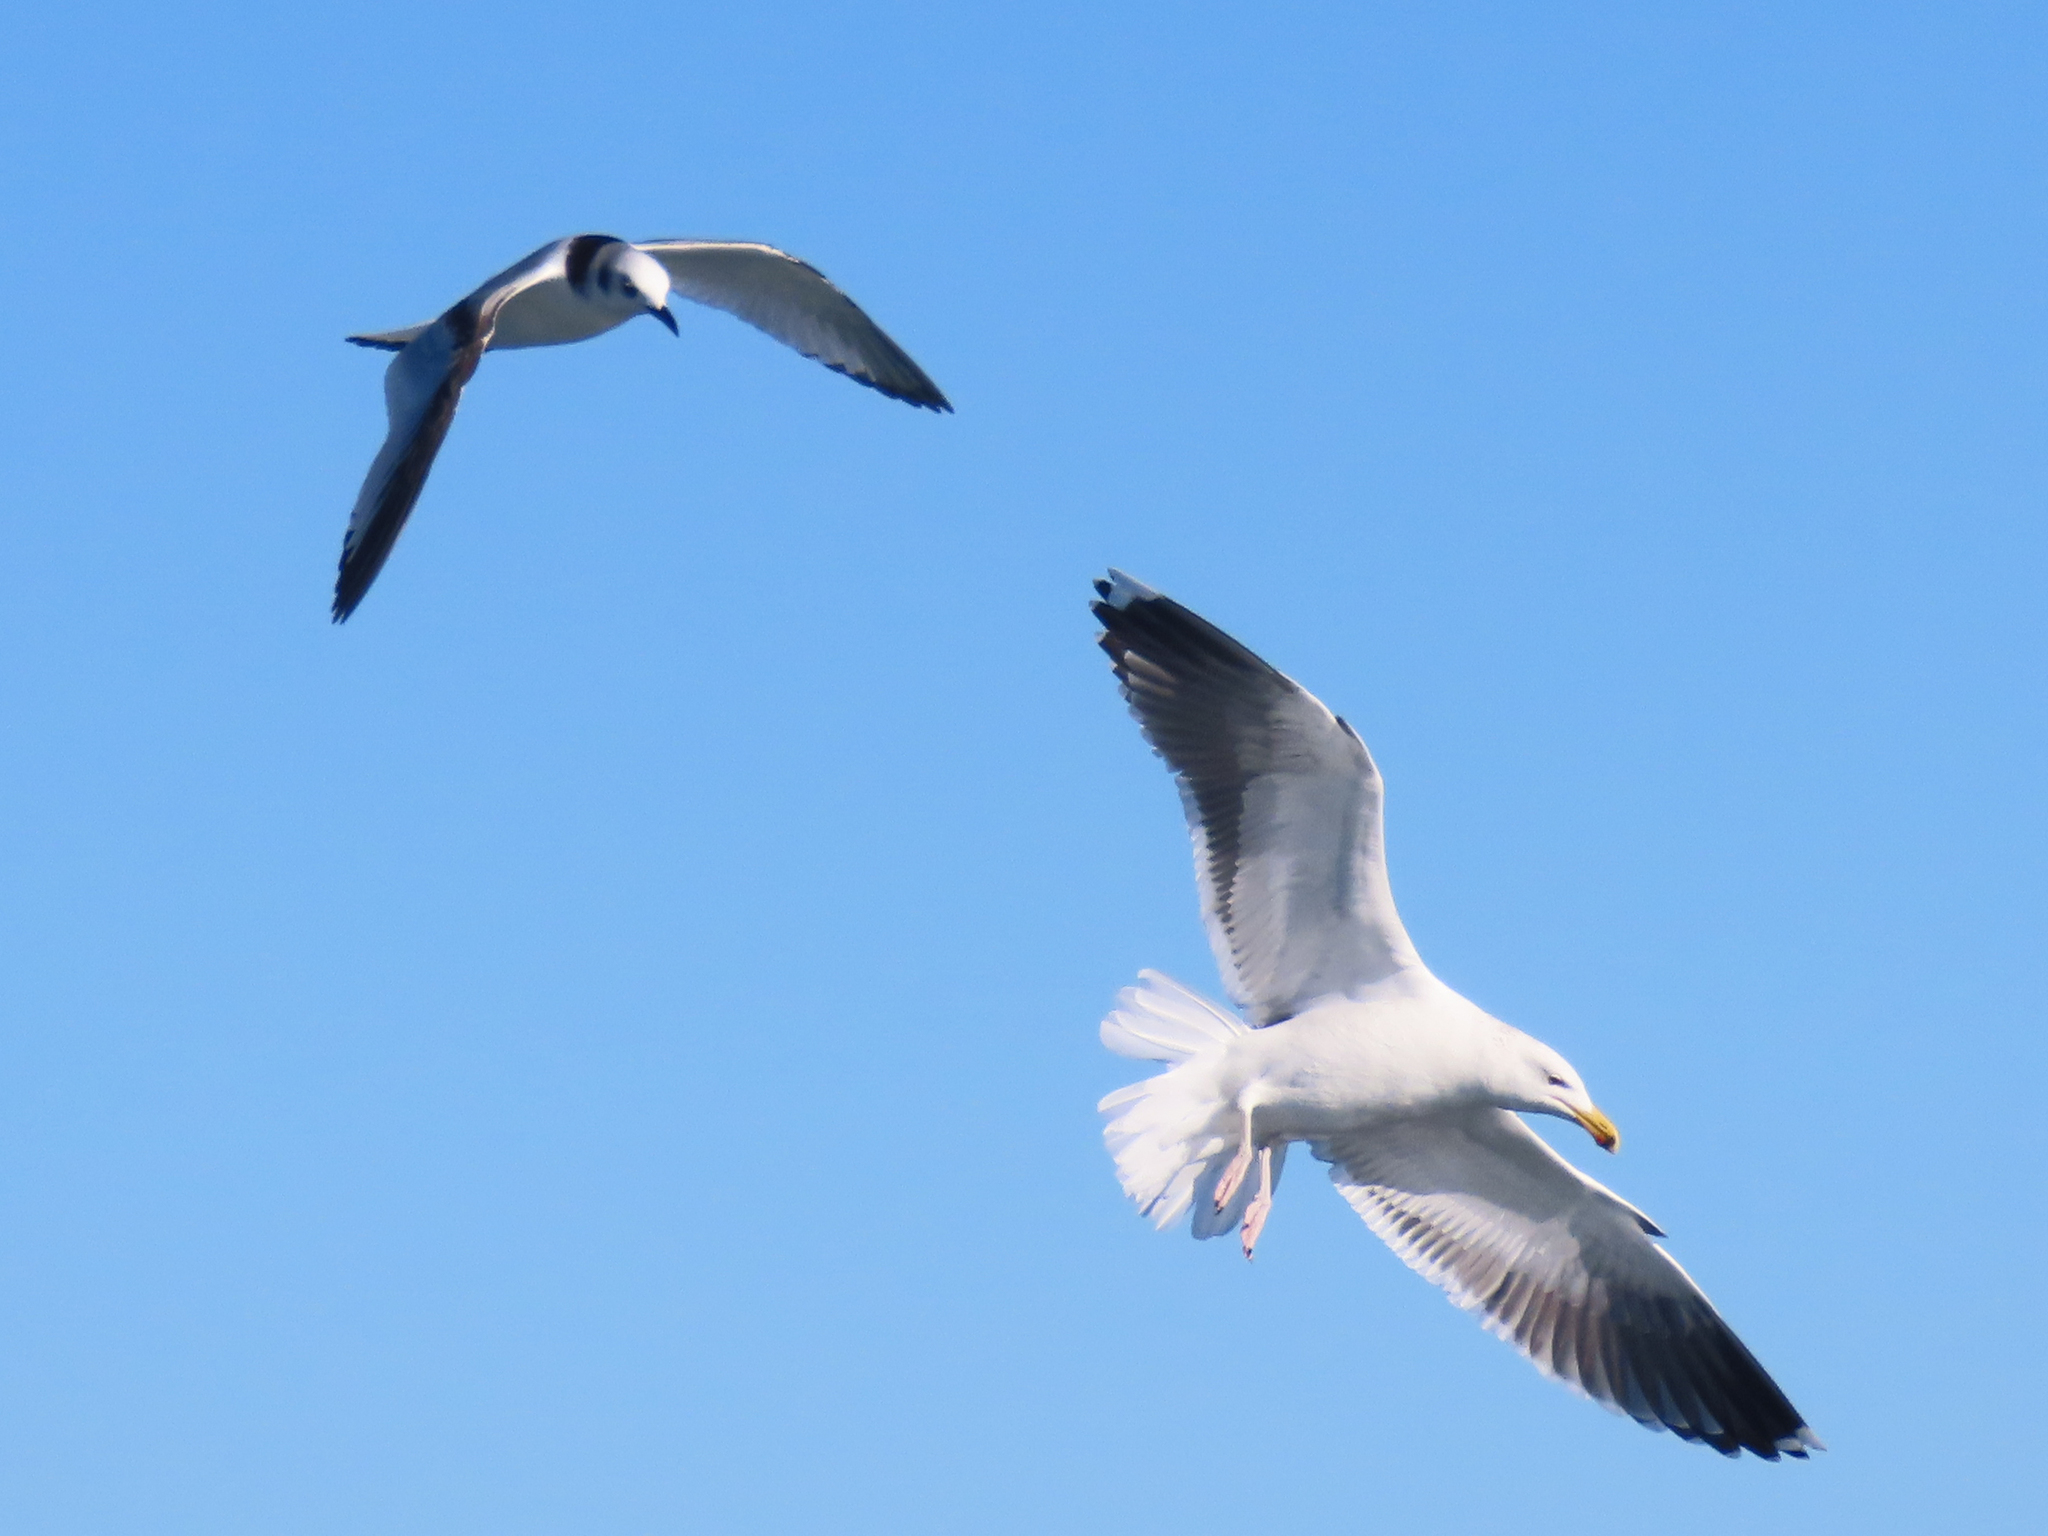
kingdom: Animalia
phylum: Chordata
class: Aves
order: Charadriiformes
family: Laridae
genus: Larus
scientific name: Larus marinus
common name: Great black-backed gull
